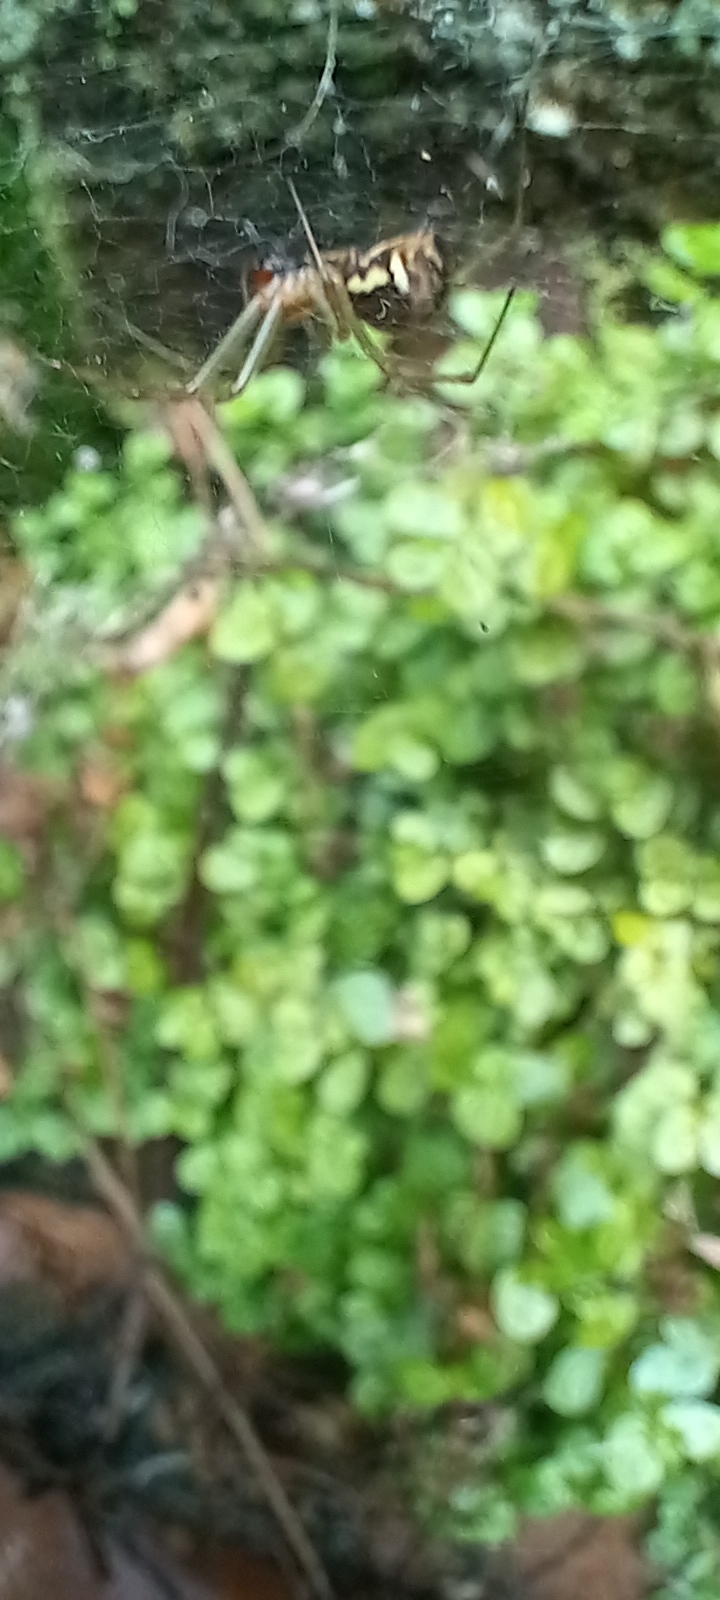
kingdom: Animalia
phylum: Arthropoda
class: Arachnida
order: Araneae
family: Linyphiidae
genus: Linyphia
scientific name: Linyphia triangularis
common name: Money spider
